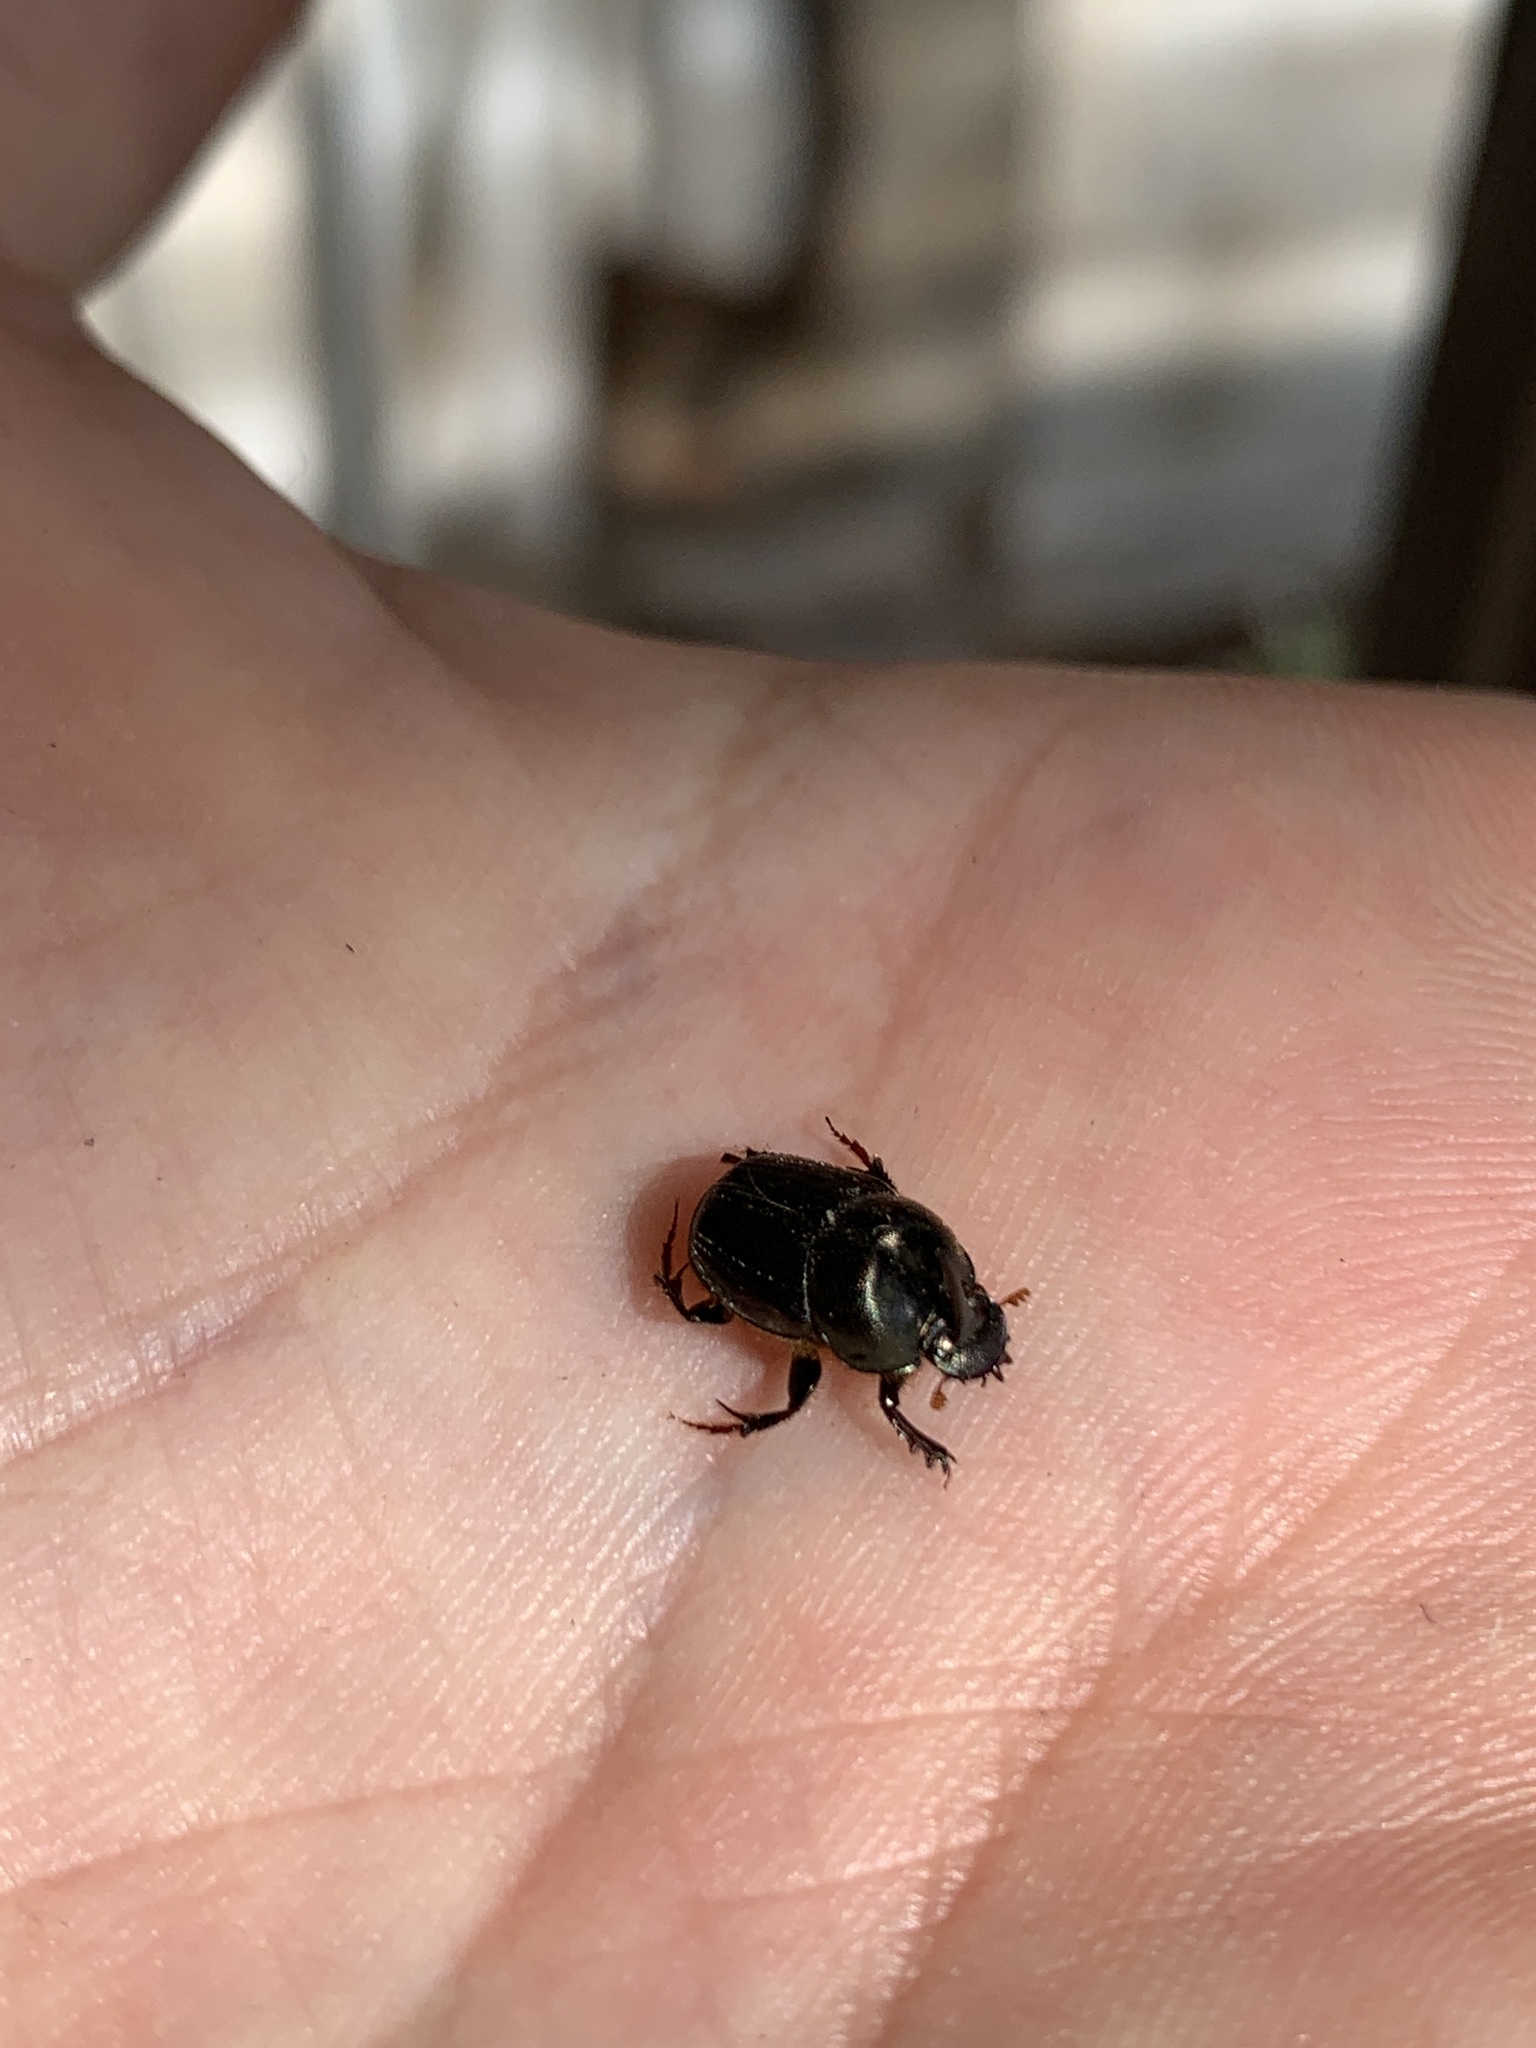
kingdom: Animalia
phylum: Arthropoda
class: Insecta
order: Coleoptera
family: Scarabaeidae
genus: Tiaronthophagus
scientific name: Tiaronthophagus ebenus
